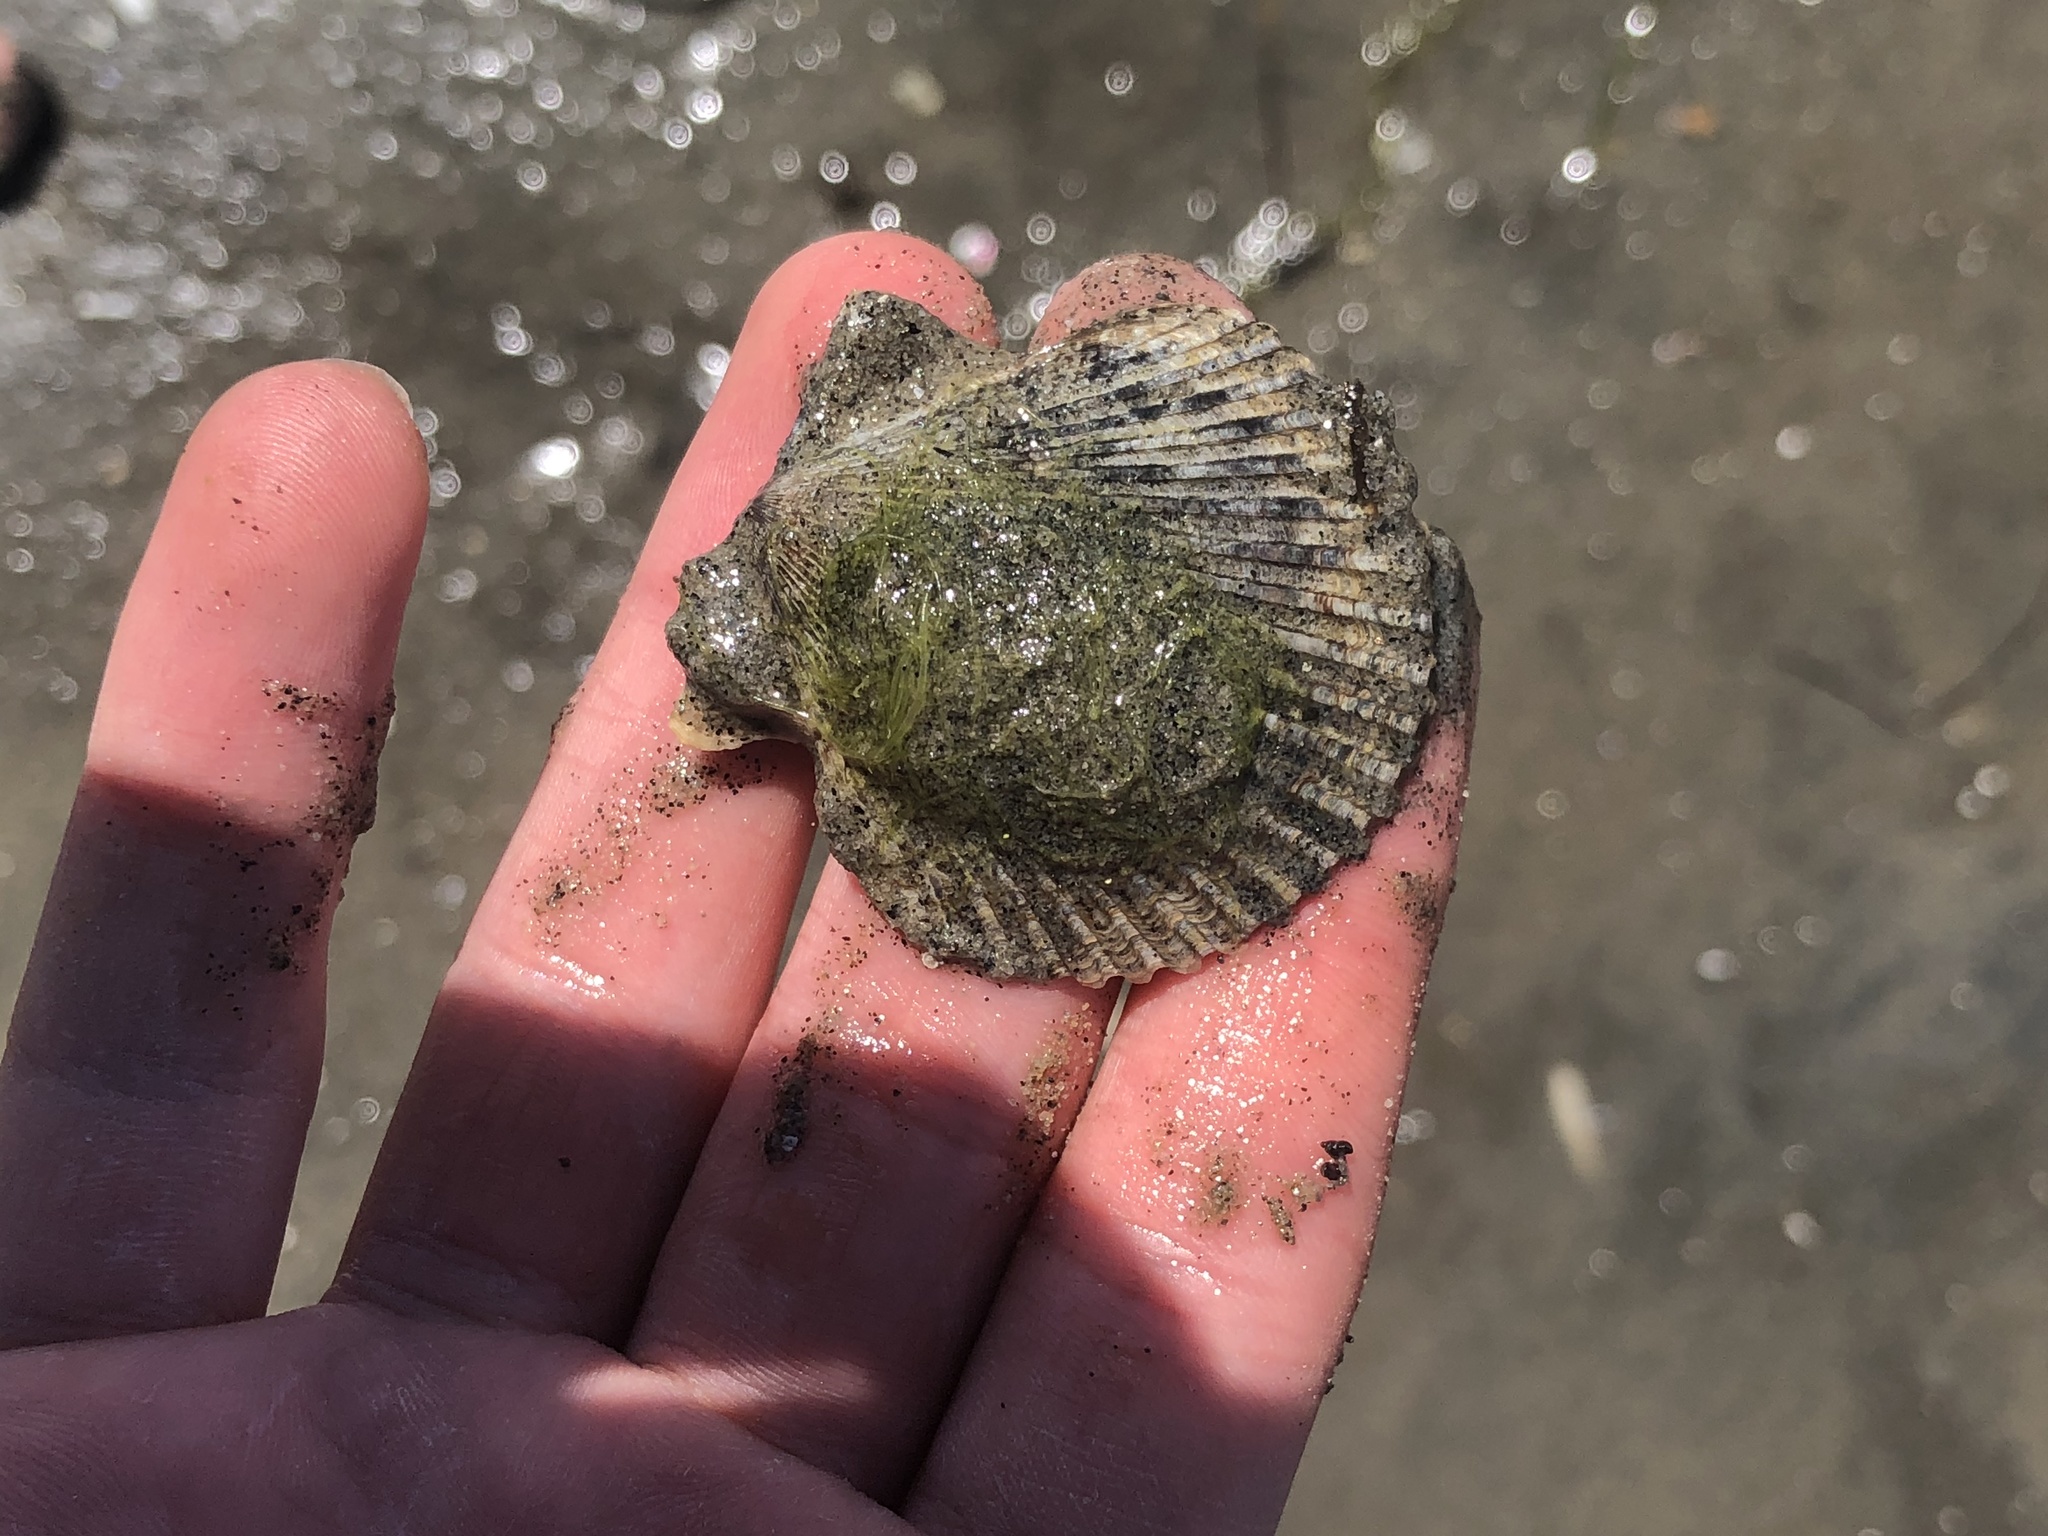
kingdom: Animalia
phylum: Mollusca
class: Bivalvia
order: Pectinida
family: Pectinidae
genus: Argopecten
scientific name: Argopecten ventricosus
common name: Catarina scallop
